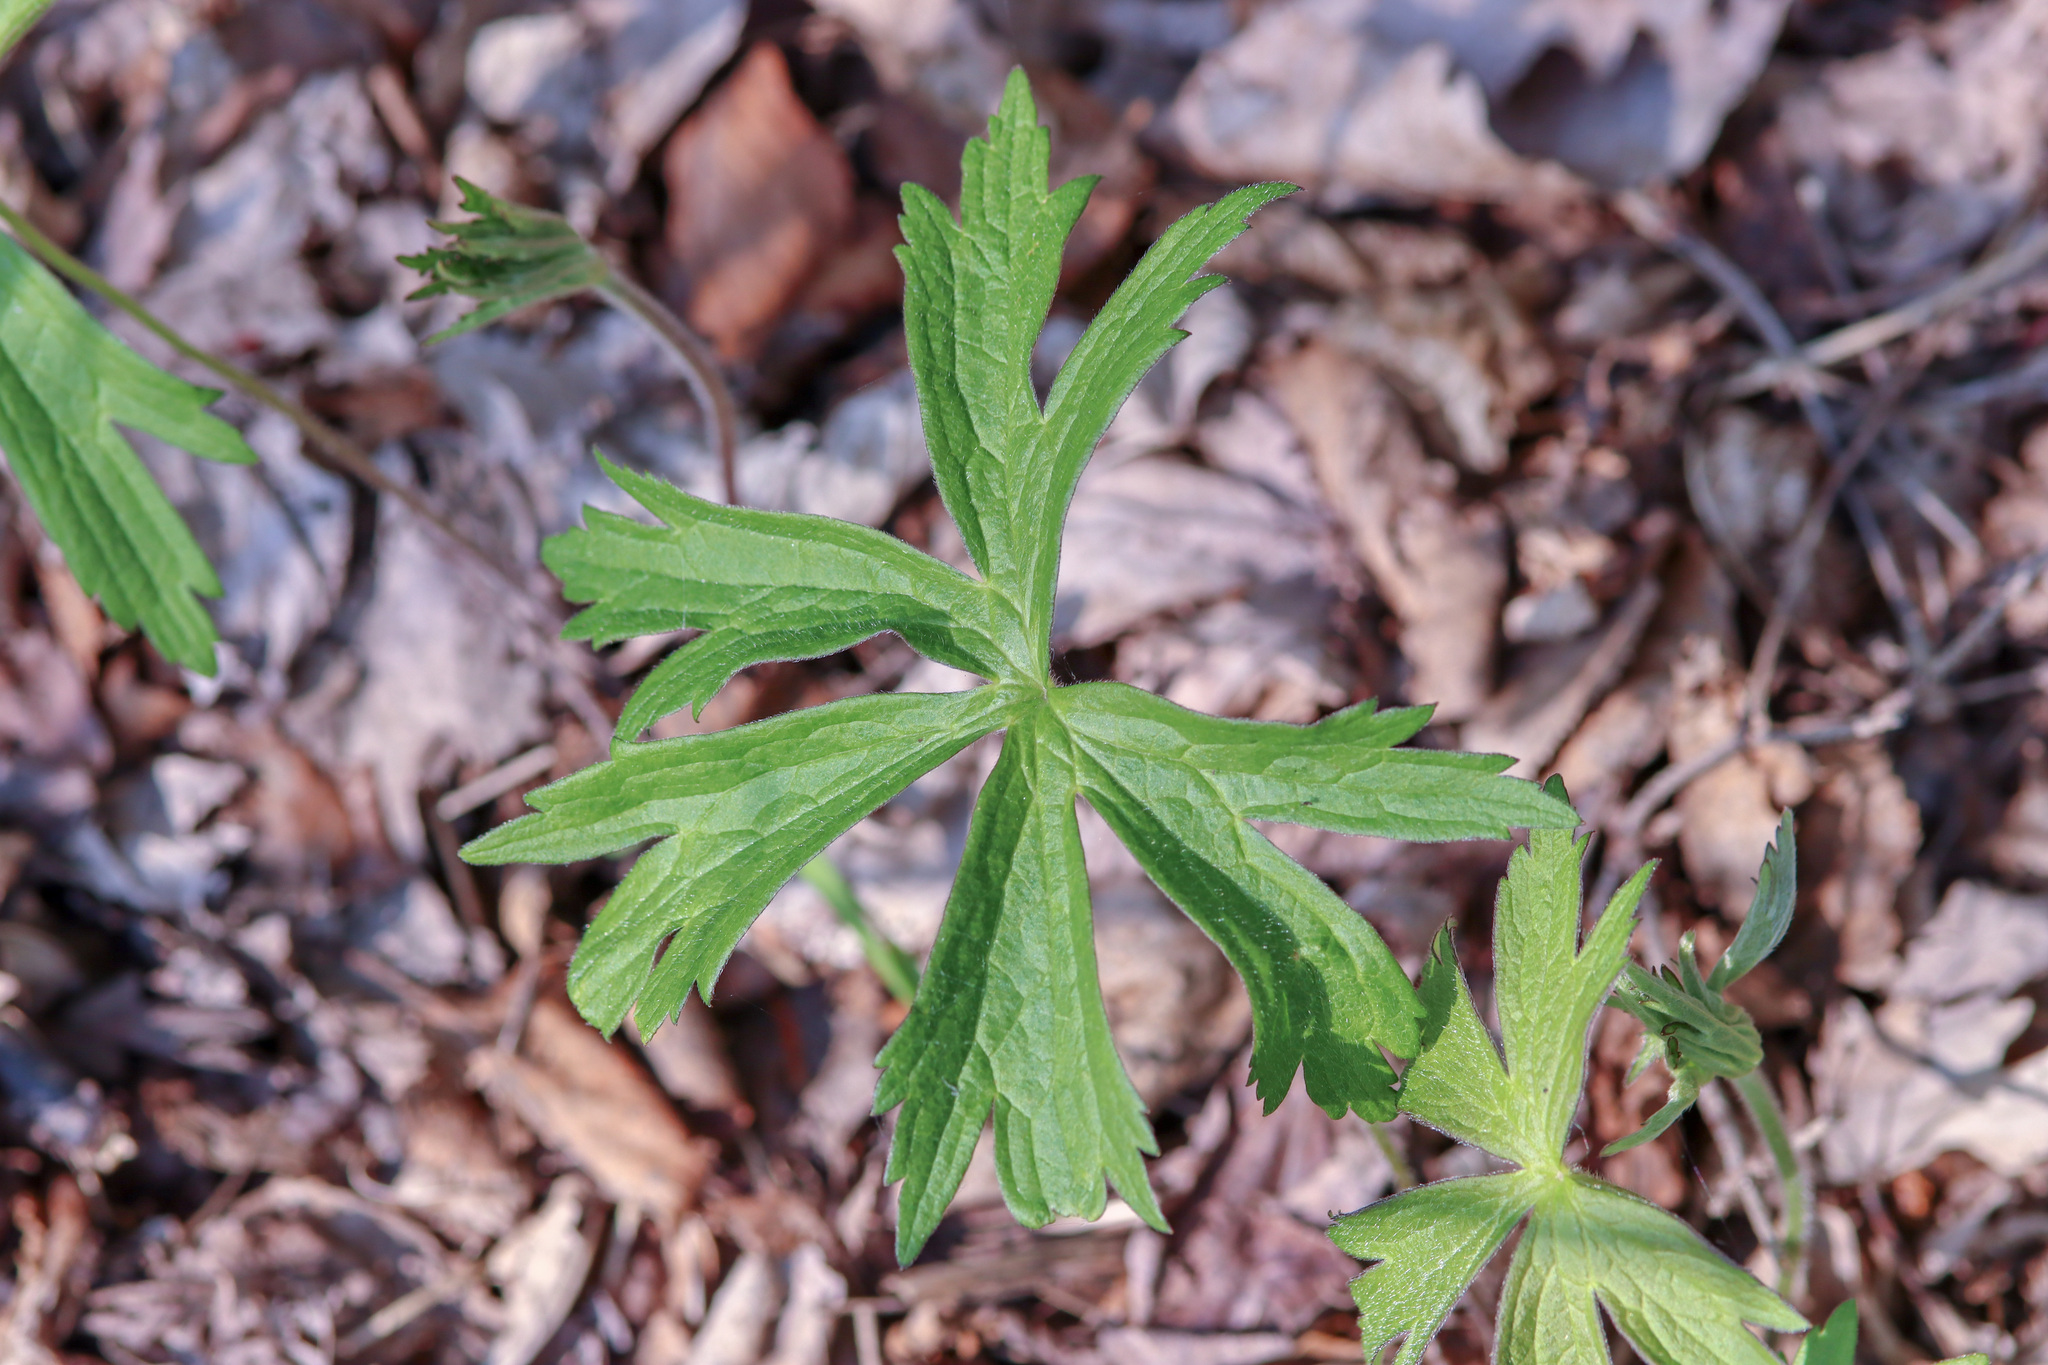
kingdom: Plantae
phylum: Tracheophyta
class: Magnoliopsida
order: Ranunculales
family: Ranunculaceae
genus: Anemonastrum
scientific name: Anemonastrum canadense
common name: Canada anemone
